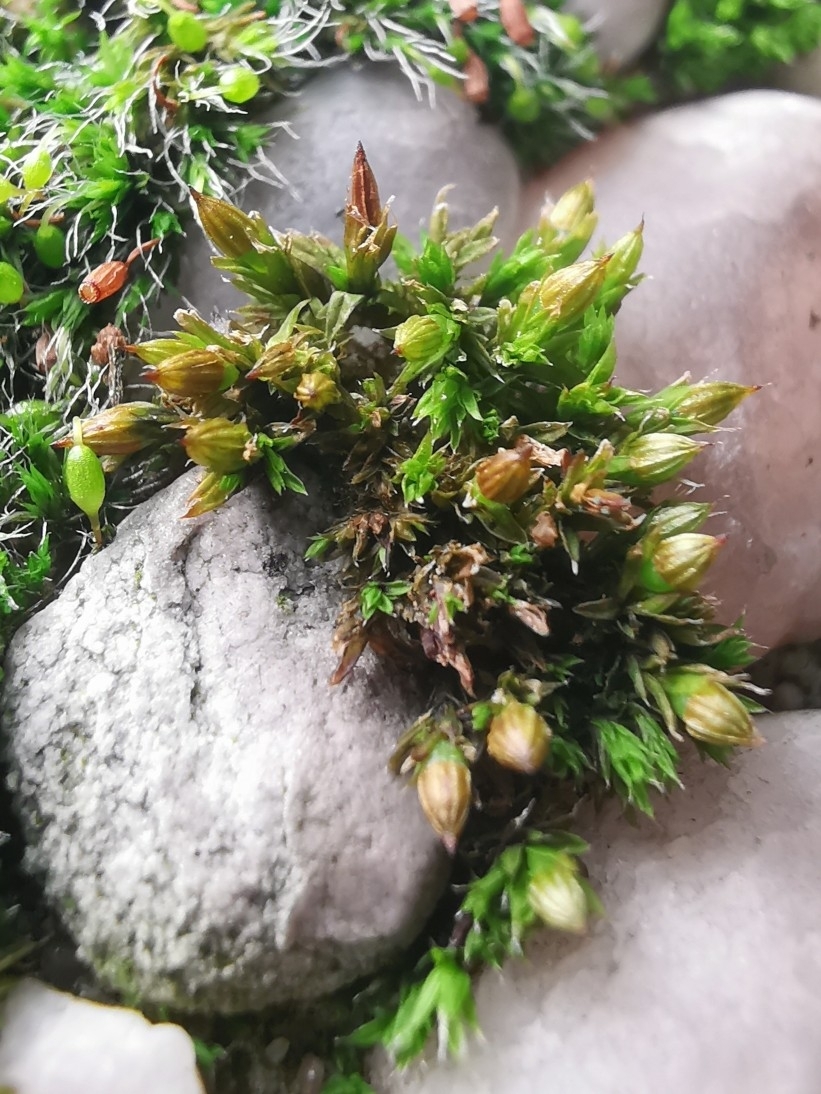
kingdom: Plantae
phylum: Bryophyta
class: Bryopsida
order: Orthotrichales
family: Orthotrichaceae
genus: Orthotrichum
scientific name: Orthotrichum diaphanum
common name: White-tipped bristle-moss
